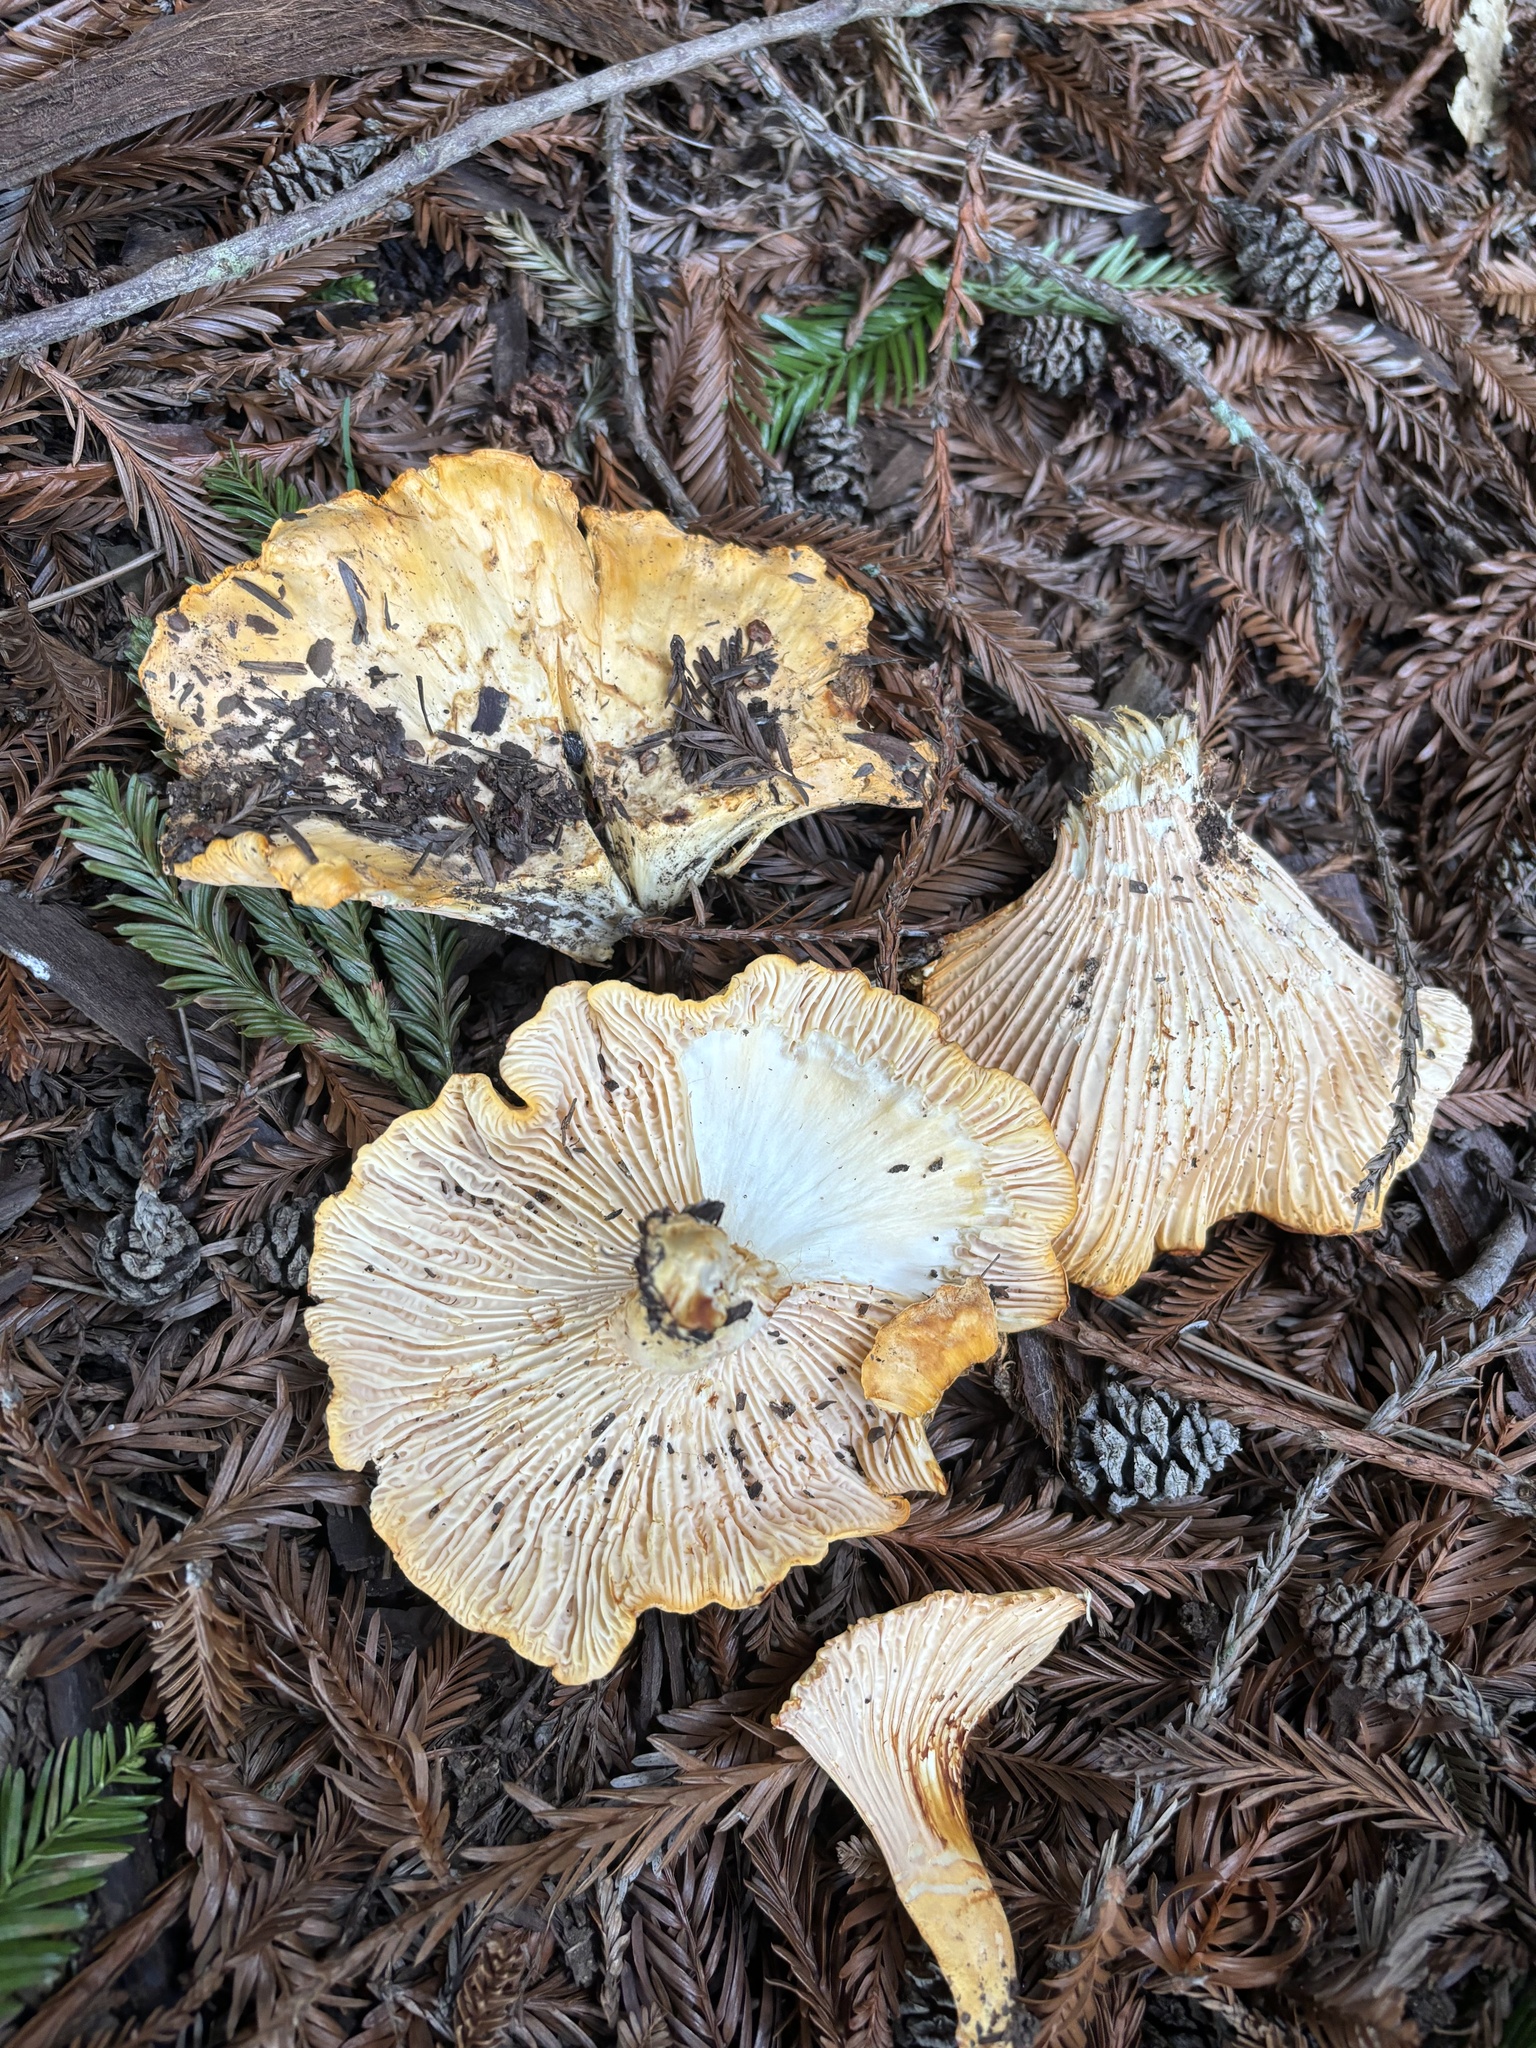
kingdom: Fungi
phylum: Basidiomycota
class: Agaricomycetes
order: Cantharellales
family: Hydnaceae
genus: Cantharellus
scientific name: Cantharellus californicus
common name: California golden chanterelle
